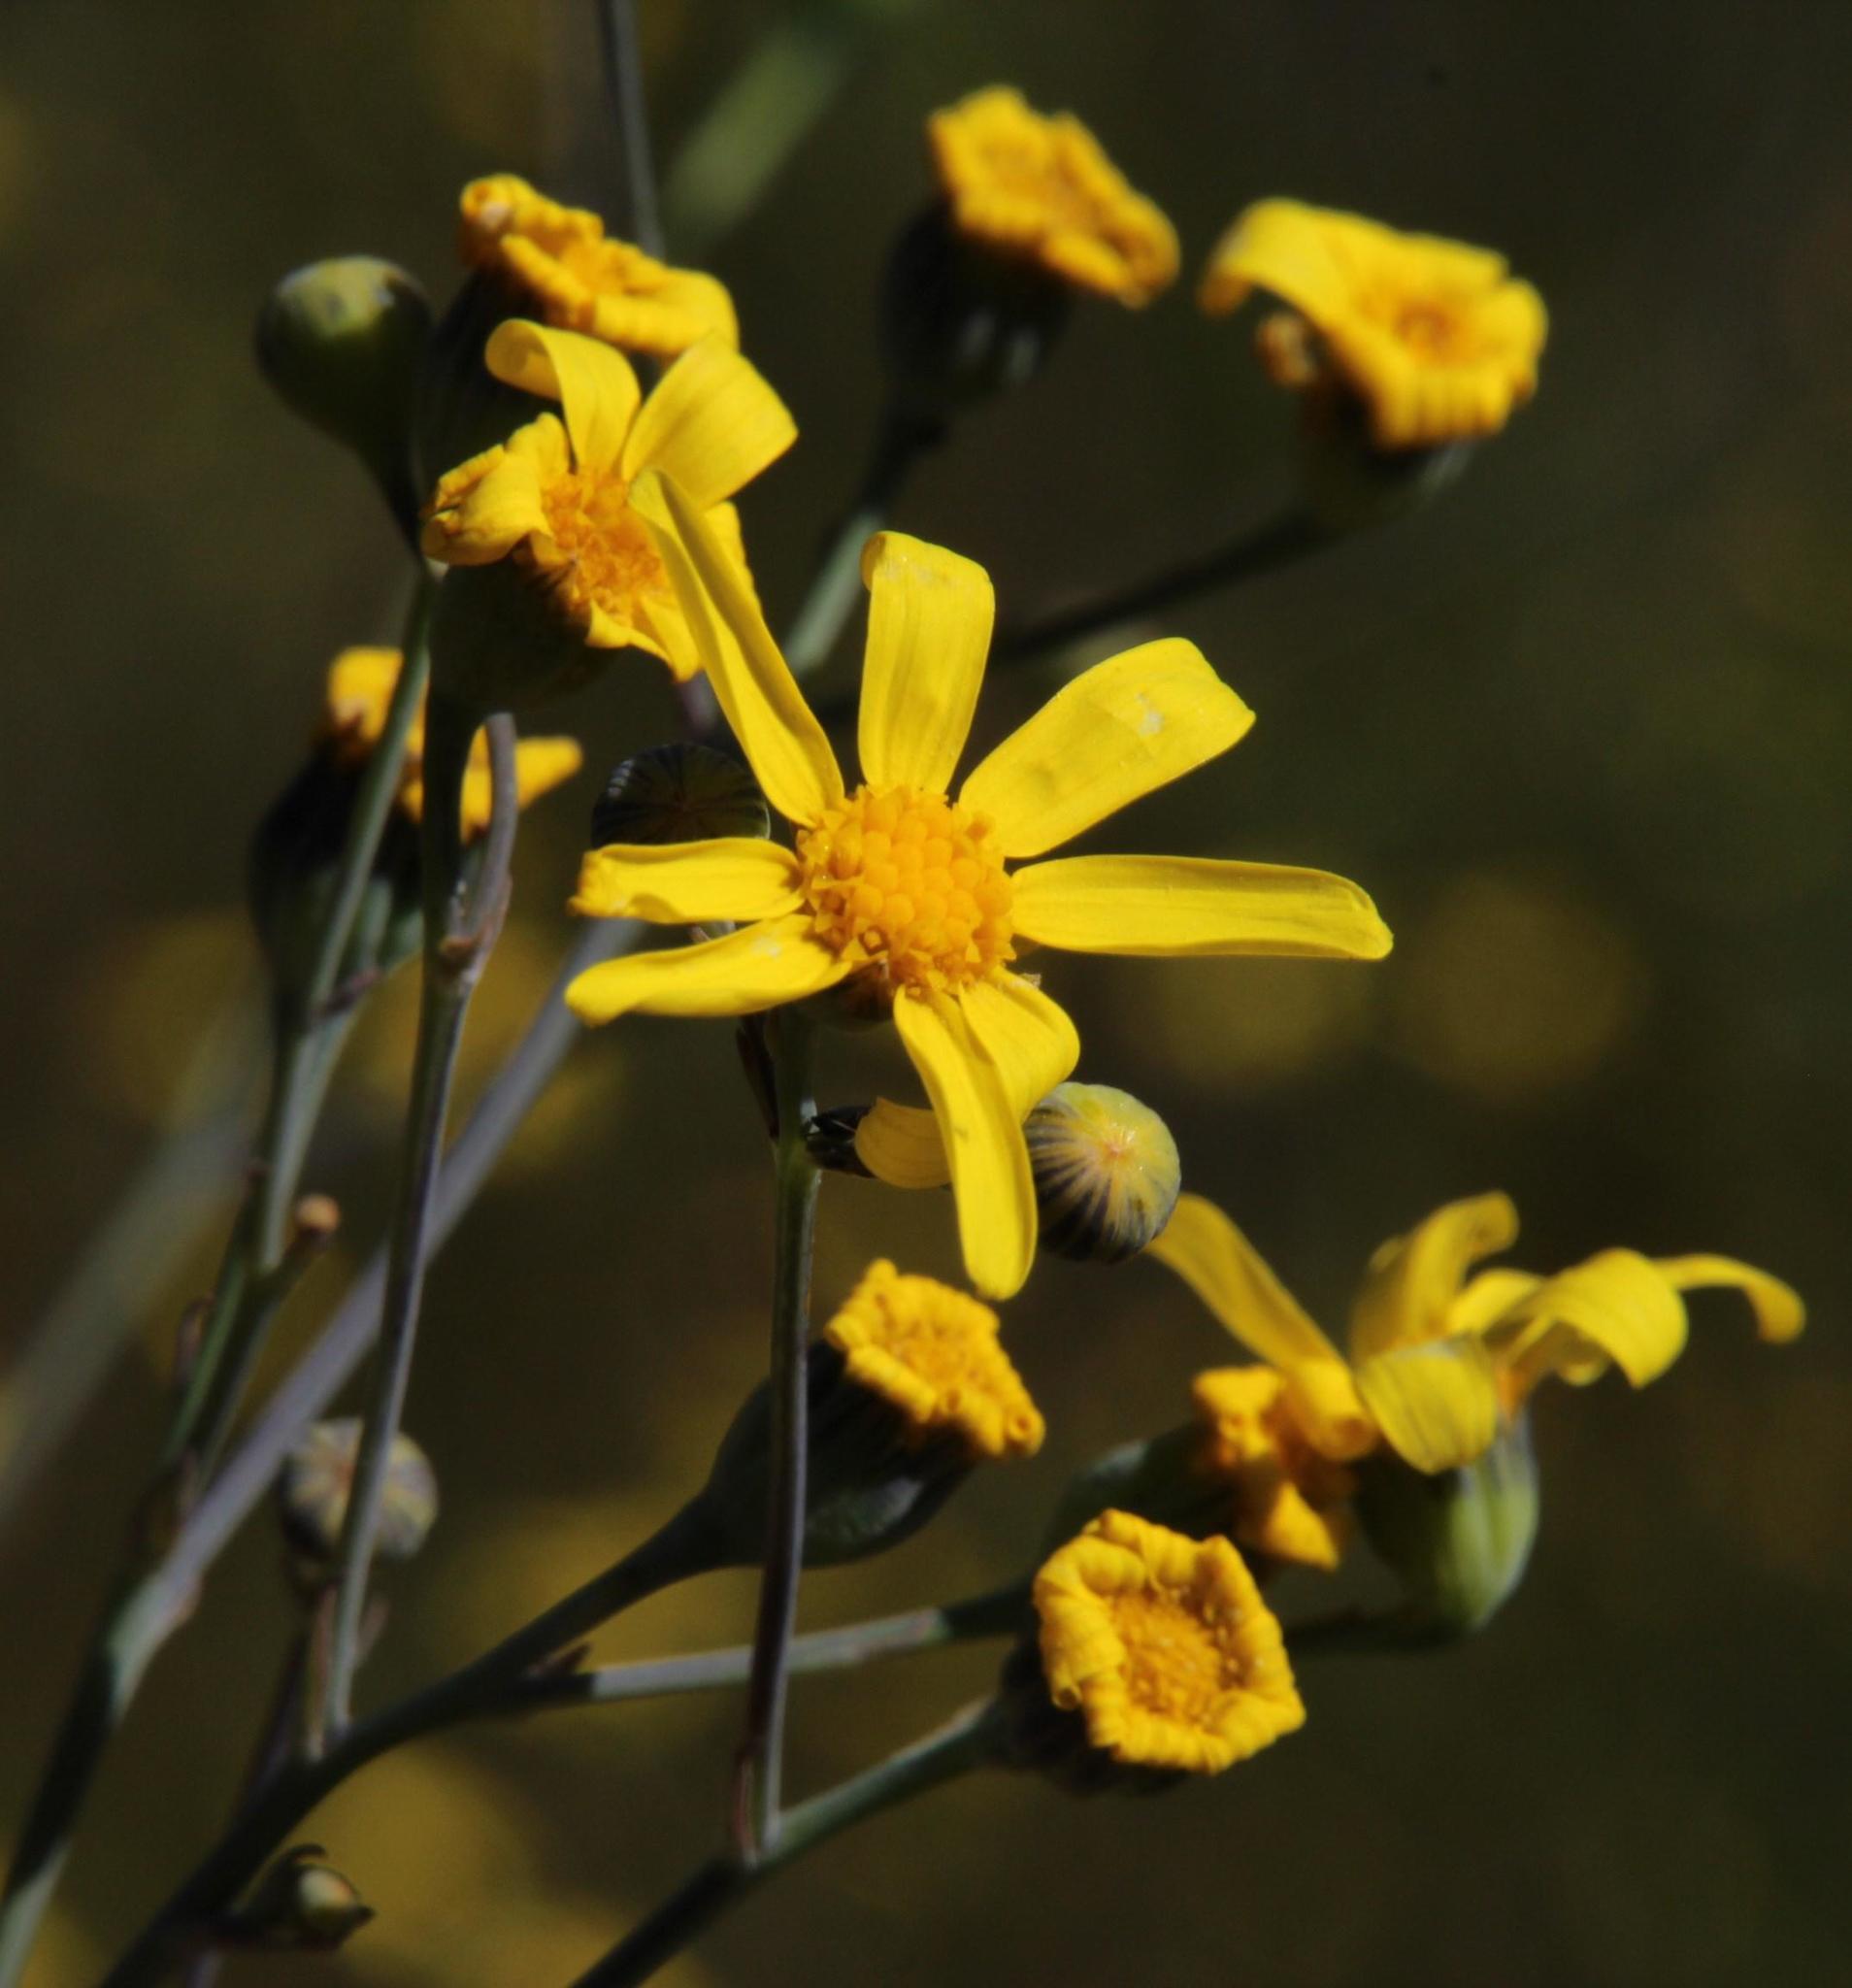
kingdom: Plantae
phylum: Tracheophyta
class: Magnoliopsida
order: Asterales
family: Asteraceae
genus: Othonna
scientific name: Othonna quinquedentata
